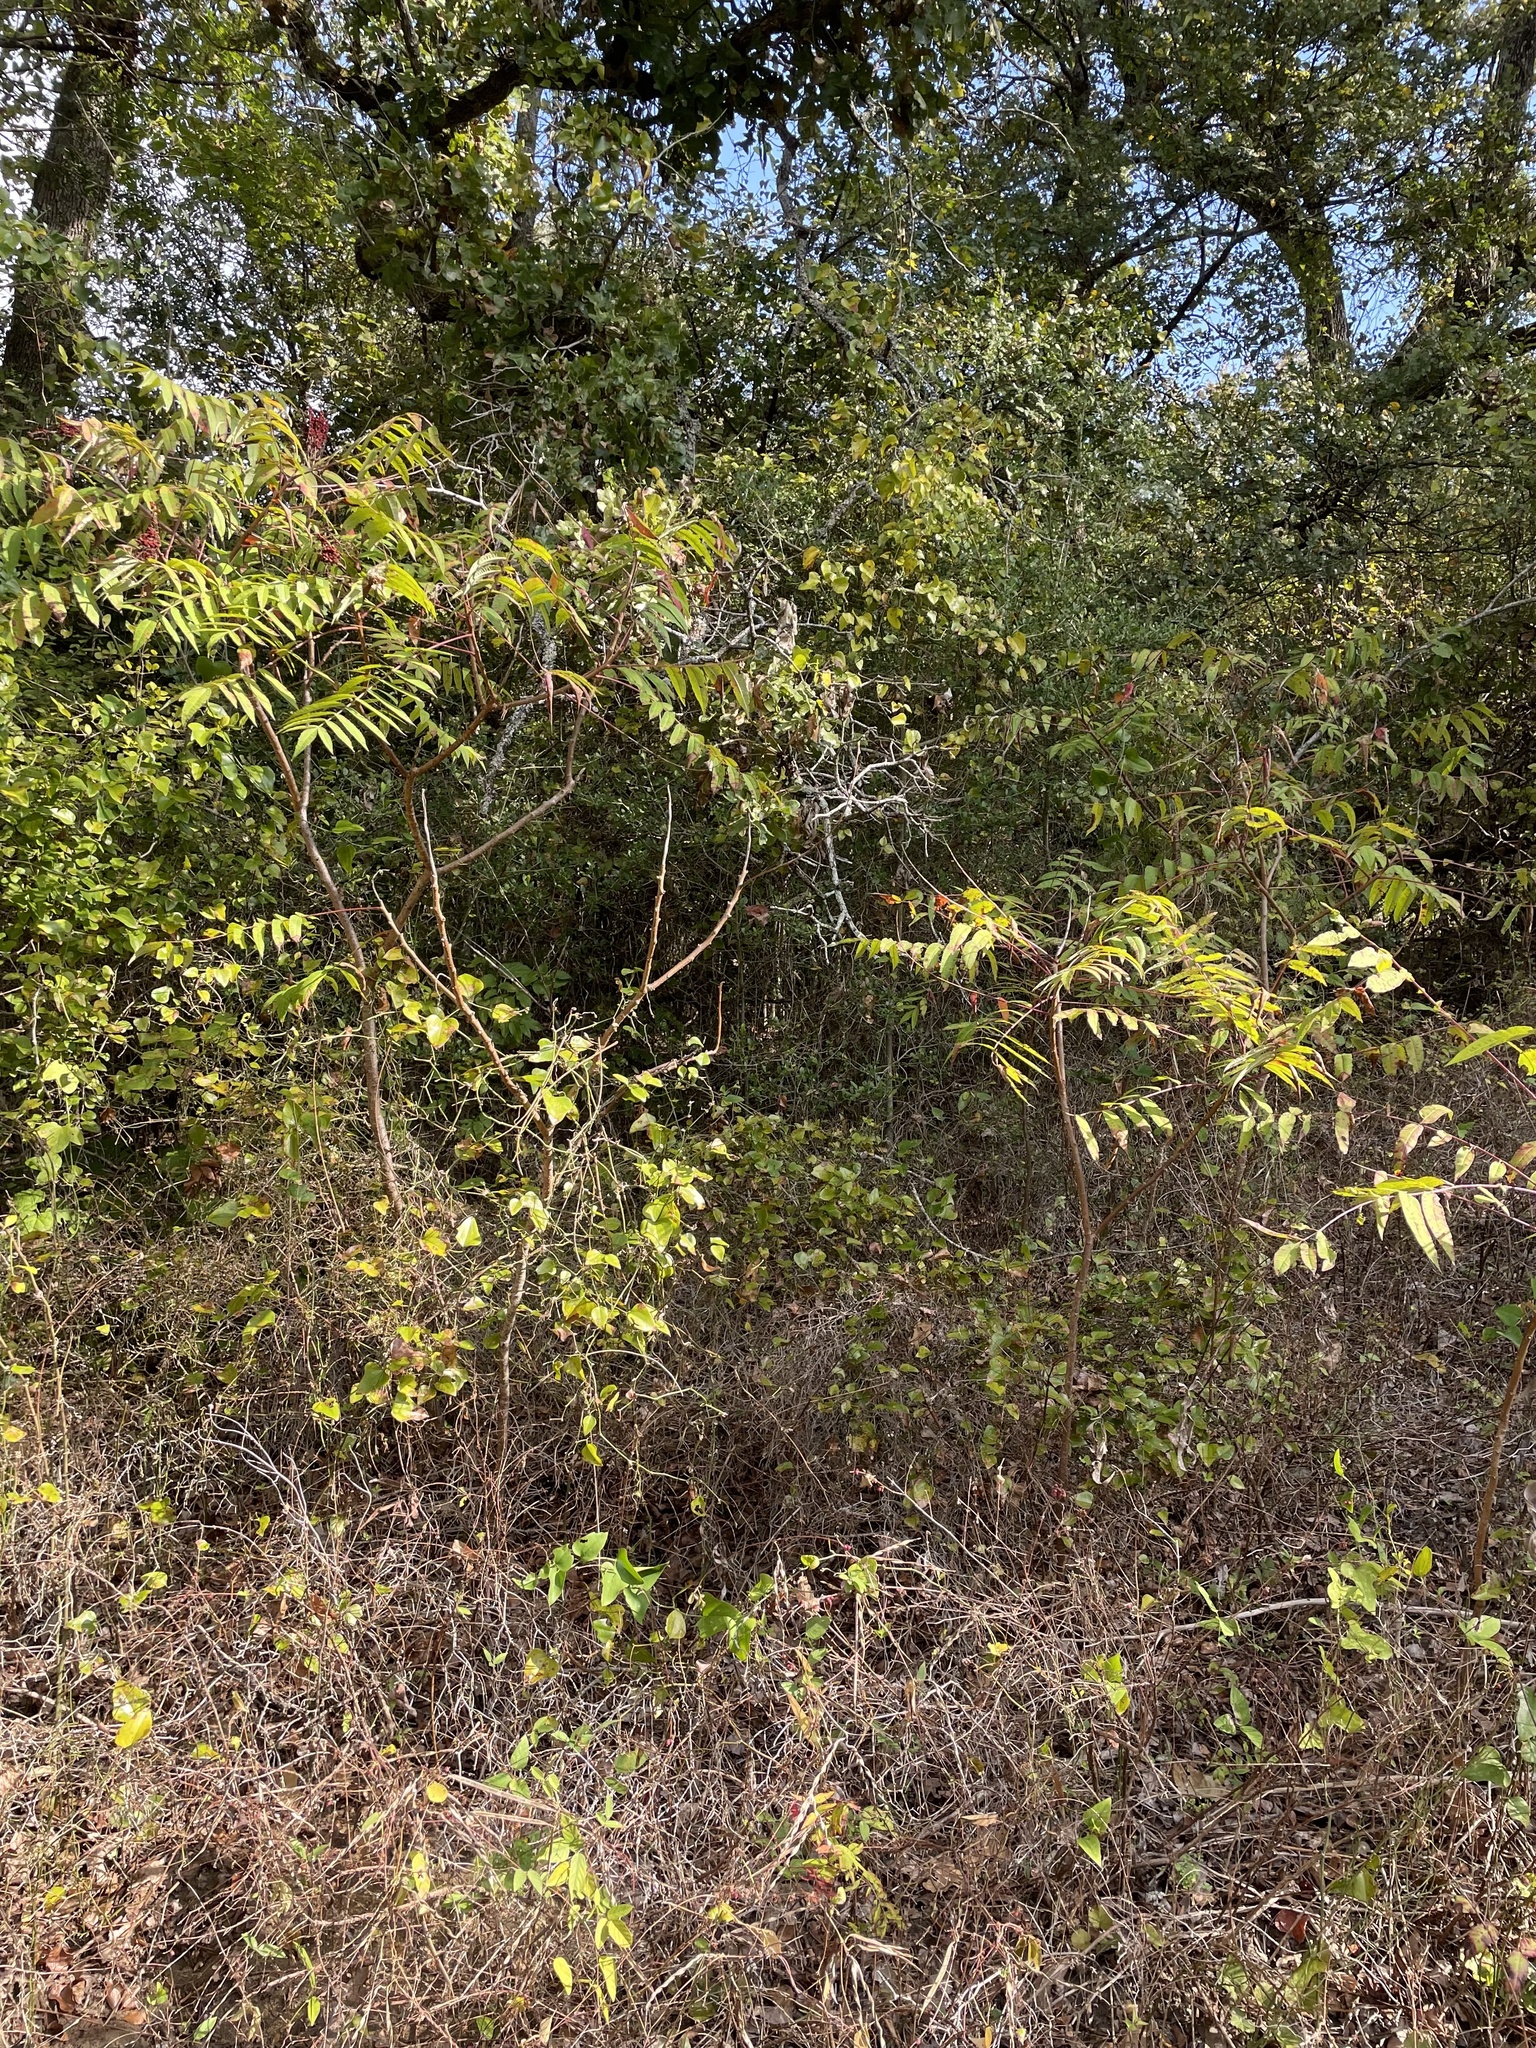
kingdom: Plantae
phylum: Tracheophyta
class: Magnoliopsida
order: Sapindales
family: Anacardiaceae
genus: Rhus
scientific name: Rhus glabra
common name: Scarlet sumac
